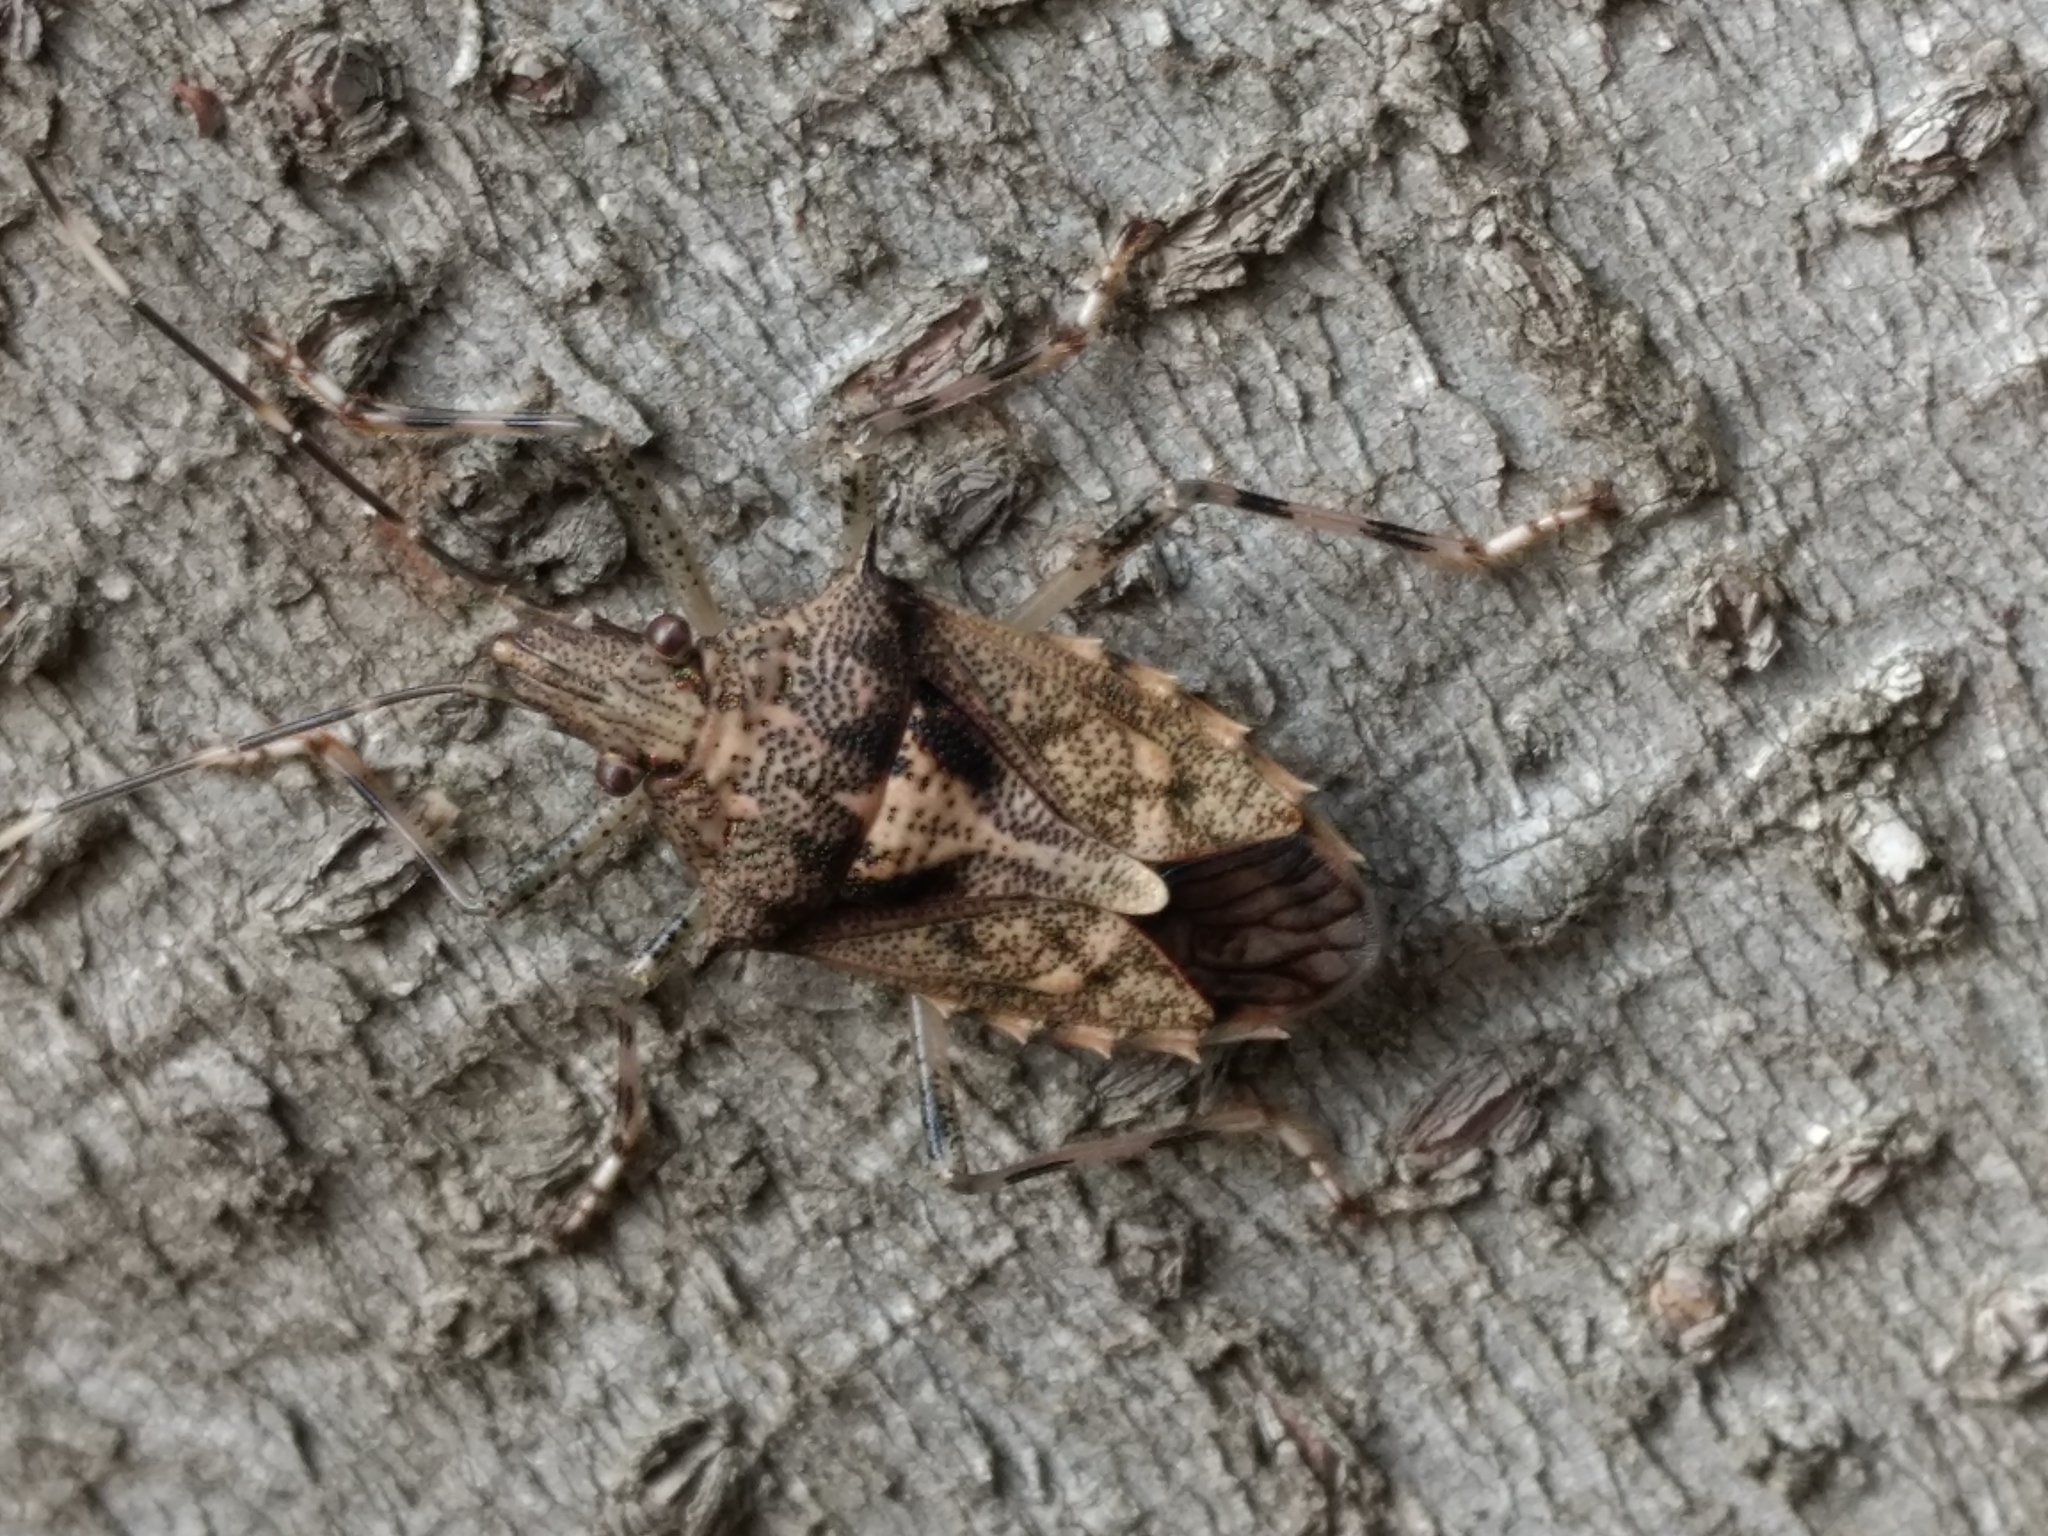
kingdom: Animalia
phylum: Arthropoda
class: Insecta
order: Hemiptera
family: Pentatomidae
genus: Bromocoris
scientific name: Bromocoris
